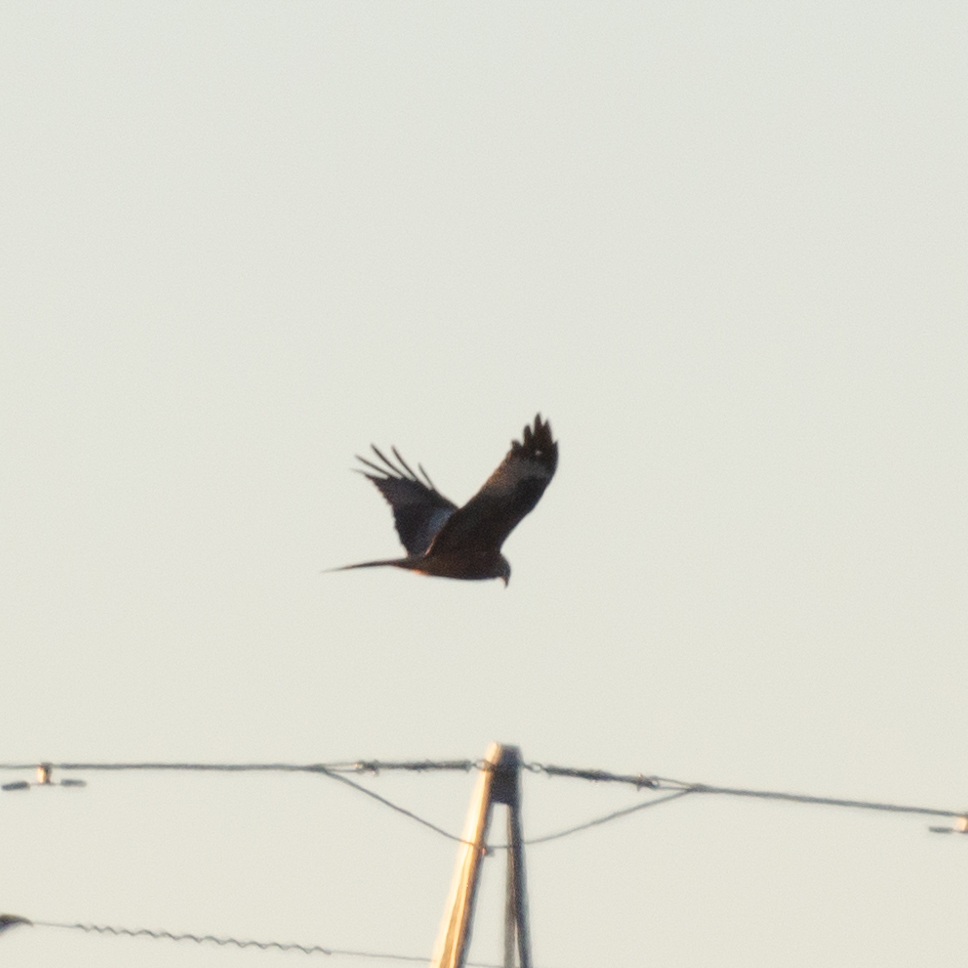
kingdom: Animalia
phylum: Chordata
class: Aves
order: Accipitriformes
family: Accipitridae
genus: Milvus
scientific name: Milvus milvus
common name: Red kite
